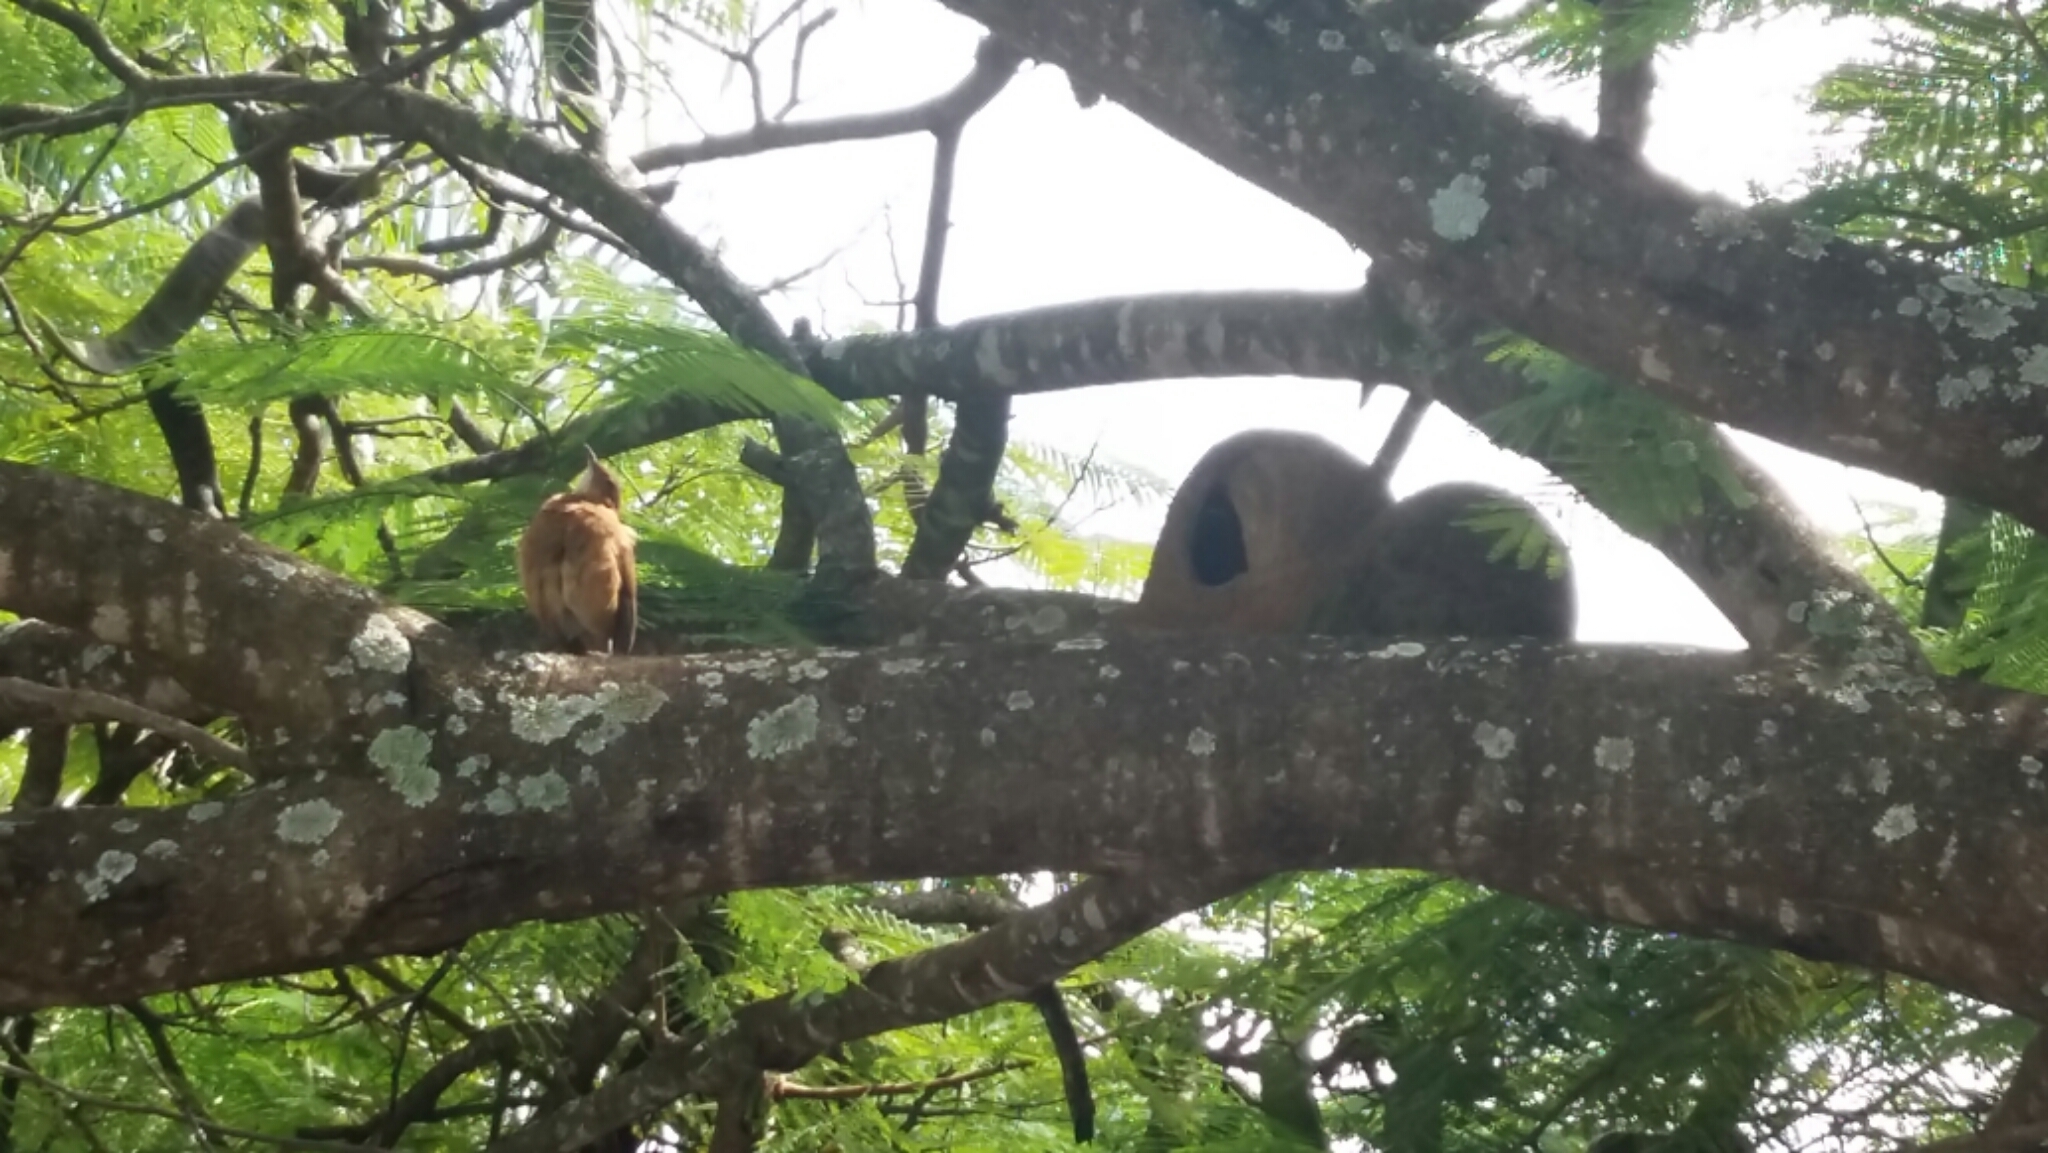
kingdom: Animalia
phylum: Chordata
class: Aves
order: Passeriformes
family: Furnariidae
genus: Furnarius
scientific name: Furnarius rufus
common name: Rufous hornero
